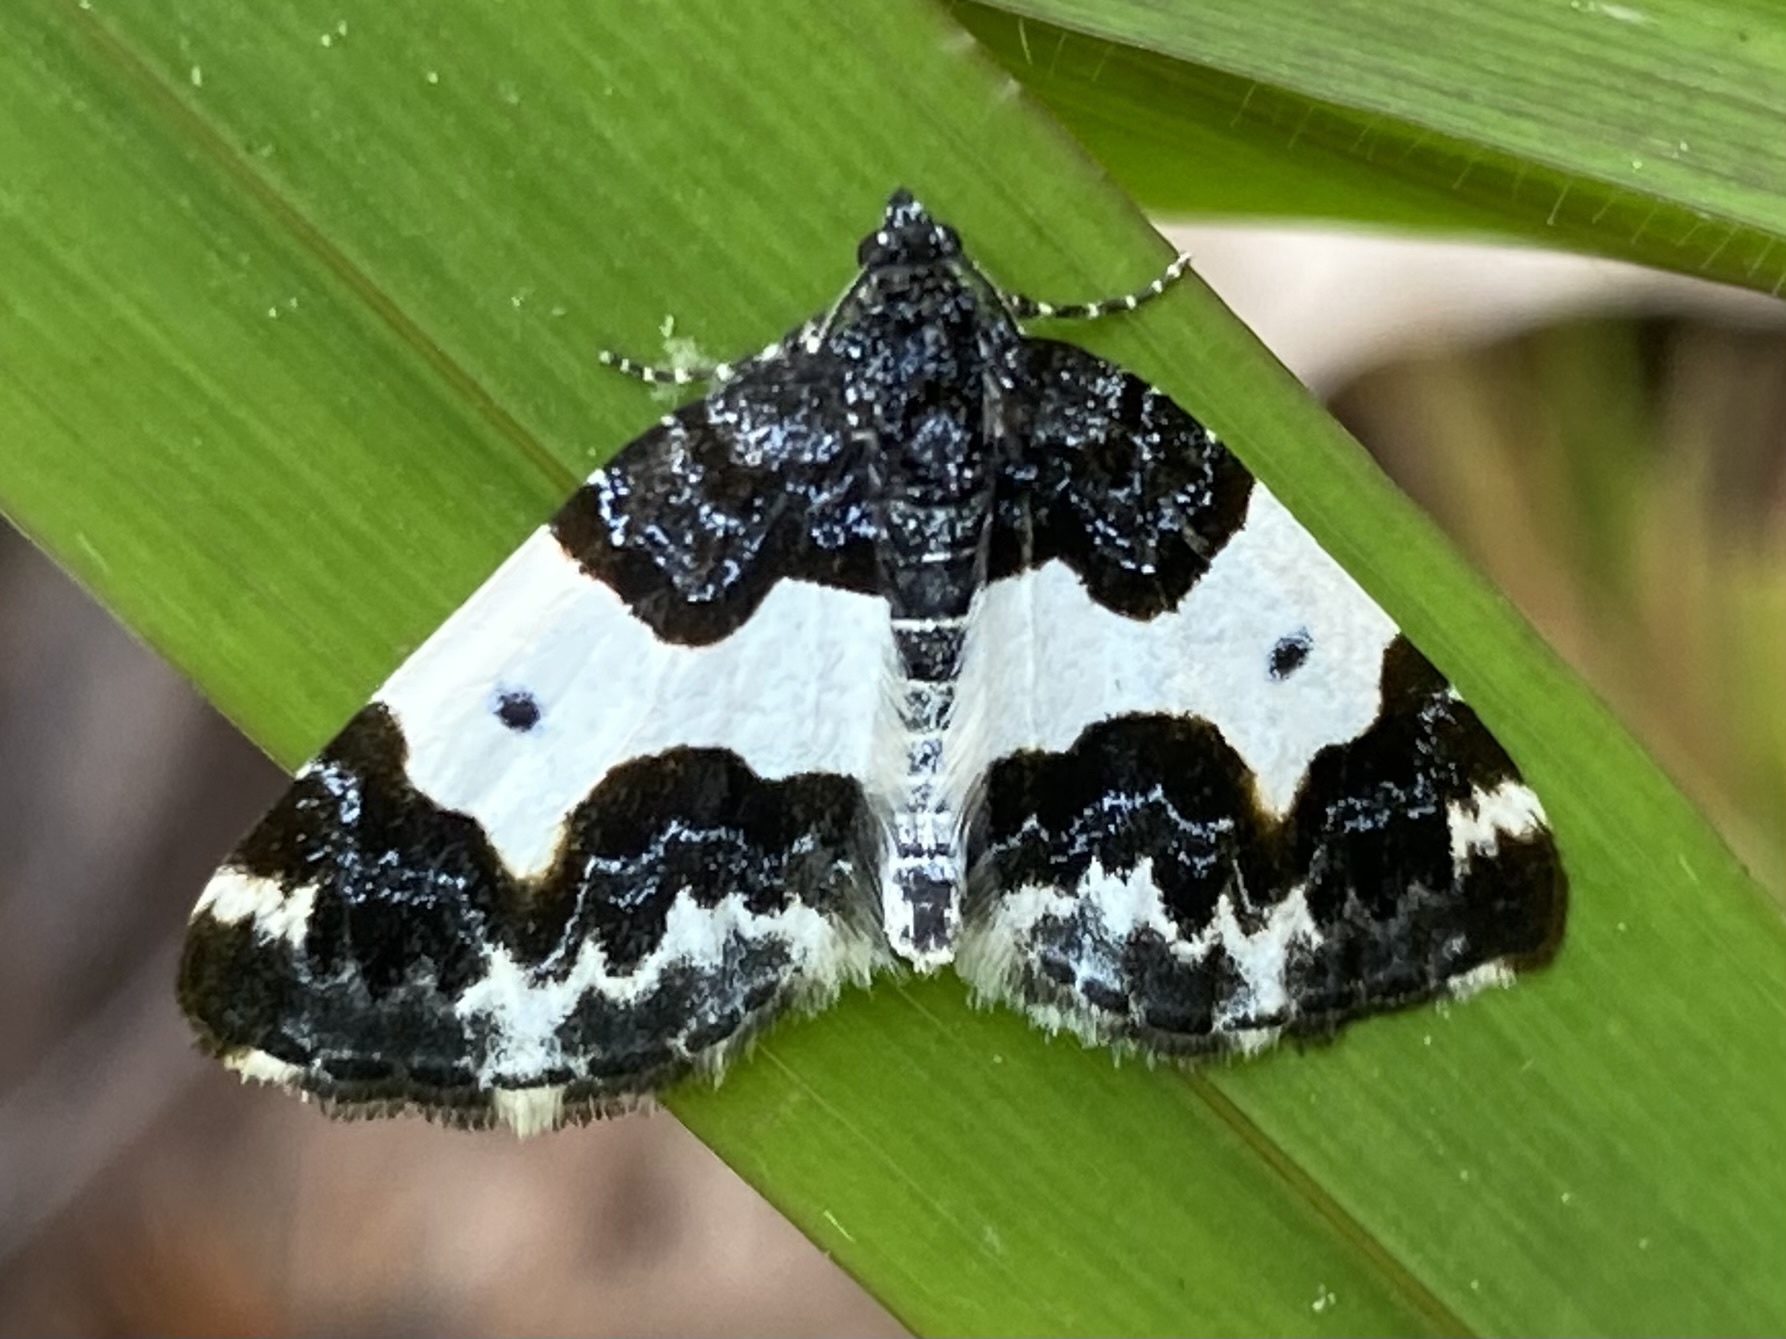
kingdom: Animalia
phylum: Arthropoda
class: Insecta
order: Lepidoptera
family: Geometridae
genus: Mesoleuca
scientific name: Mesoleuca gratulata
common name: Half-white carpet moth
